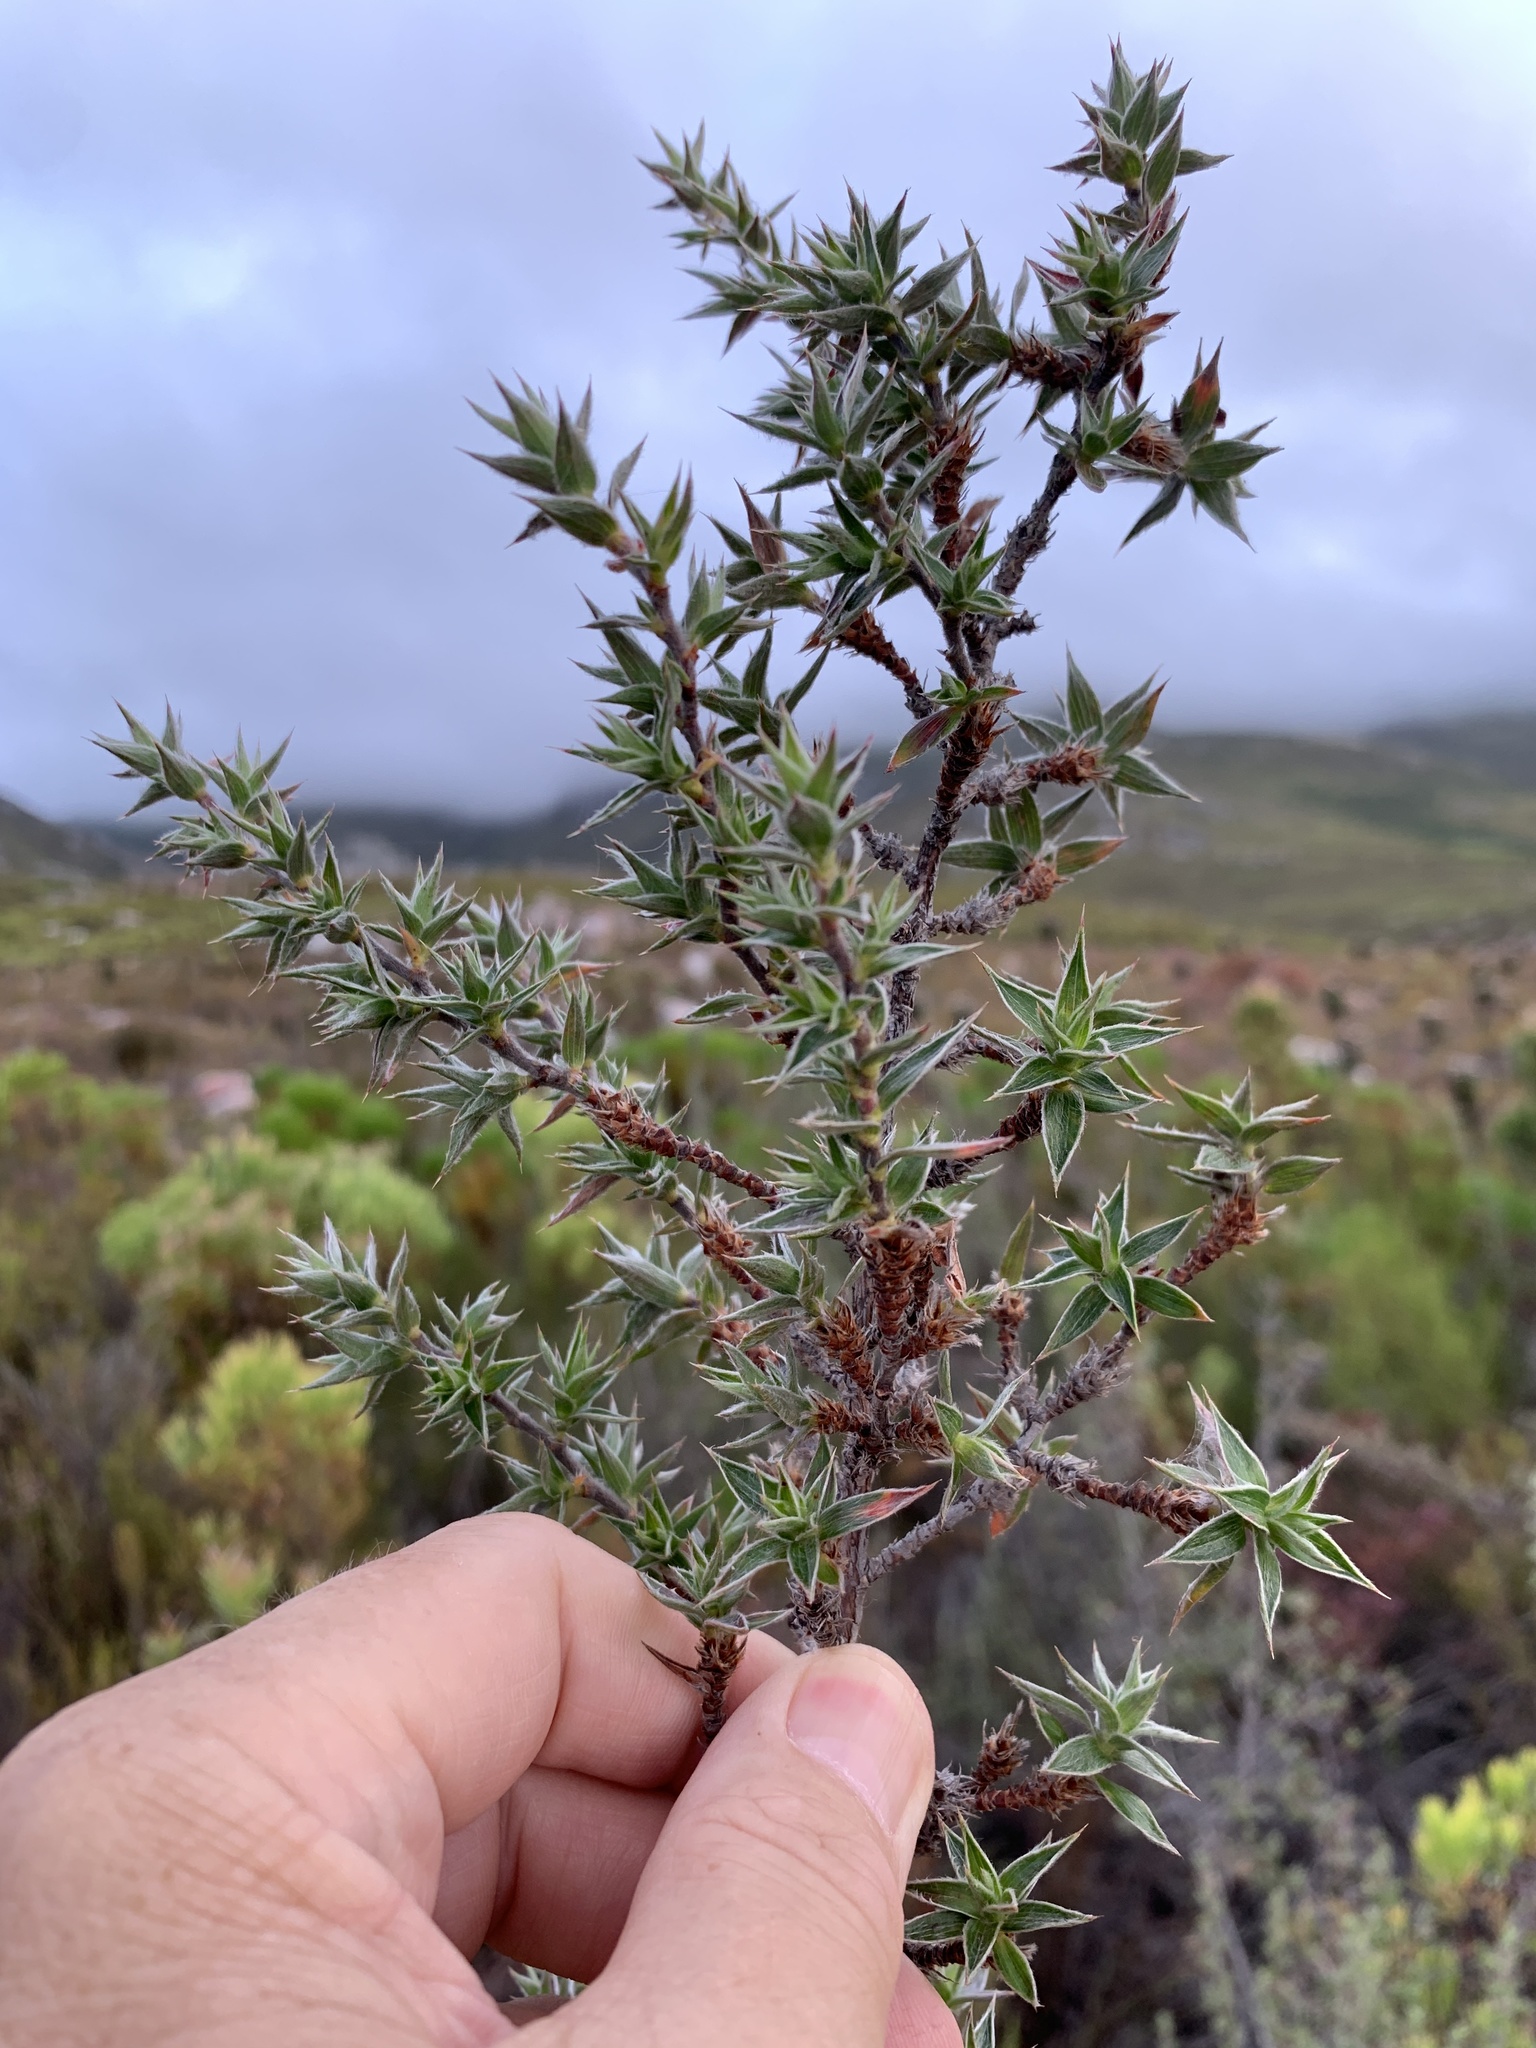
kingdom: Plantae
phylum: Tracheophyta
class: Magnoliopsida
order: Rosales
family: Rosaceae
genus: Cliffortia
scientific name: Cliffortia ruscifolia
